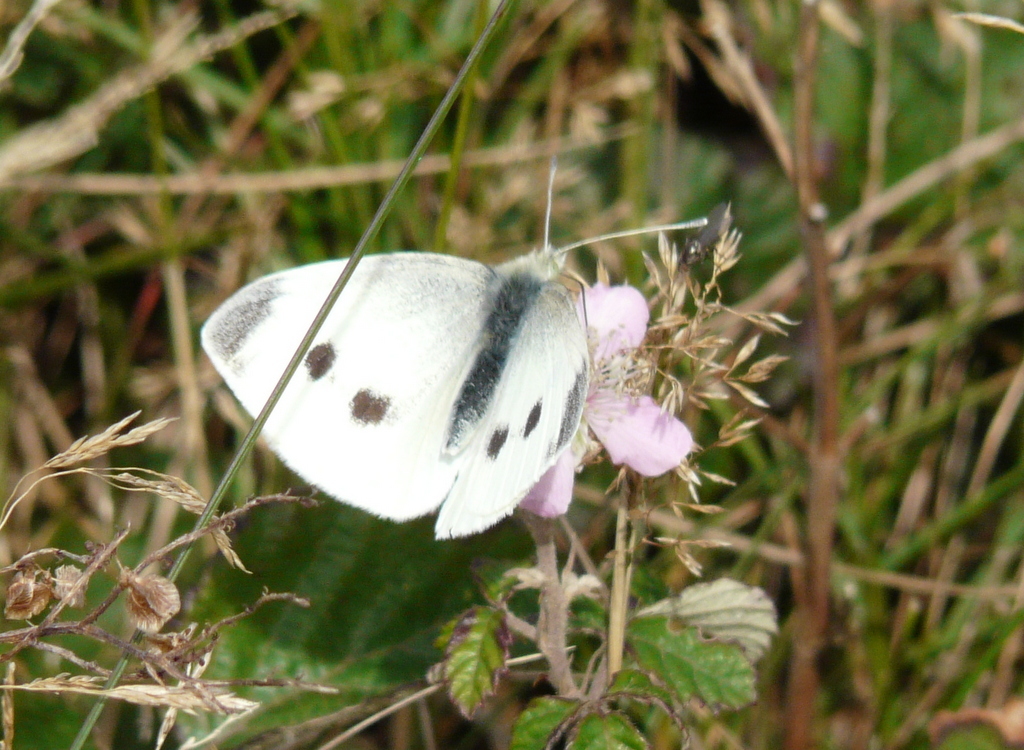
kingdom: Animalia
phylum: Arthropoda
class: Insecta
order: Lepidoptera
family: Pieridae
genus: Pieris
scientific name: Pieris rapae
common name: Small white
